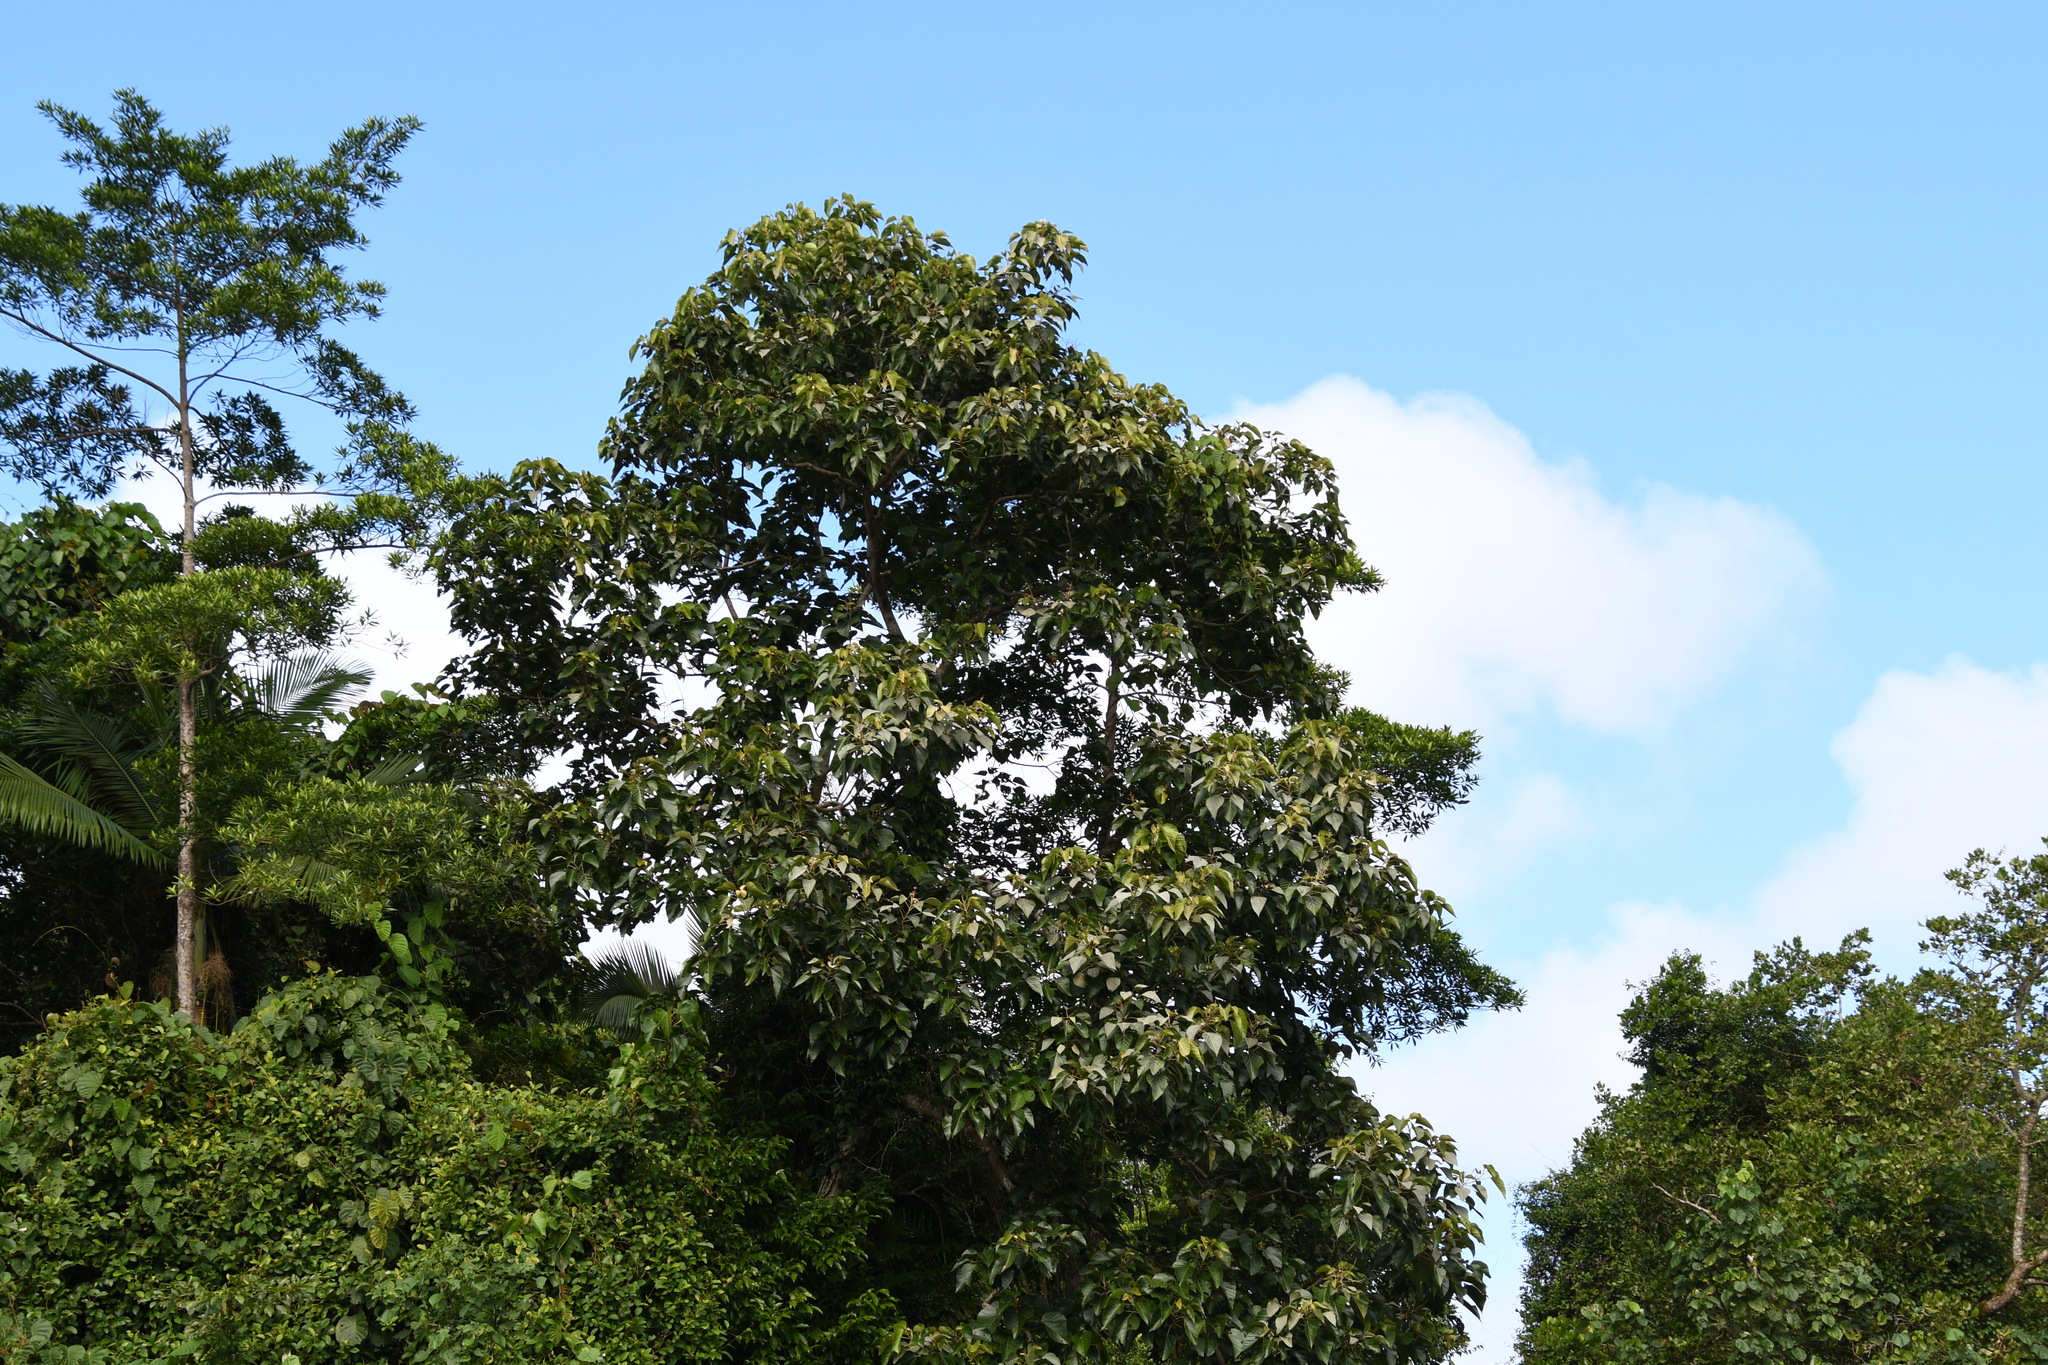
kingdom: Plantae
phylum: Tracheophyta
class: Magnoliopsida
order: Malpighiales
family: Euphorbiaceae
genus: Aleurites
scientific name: Aleurites moluccanus
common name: Candlenut tree
